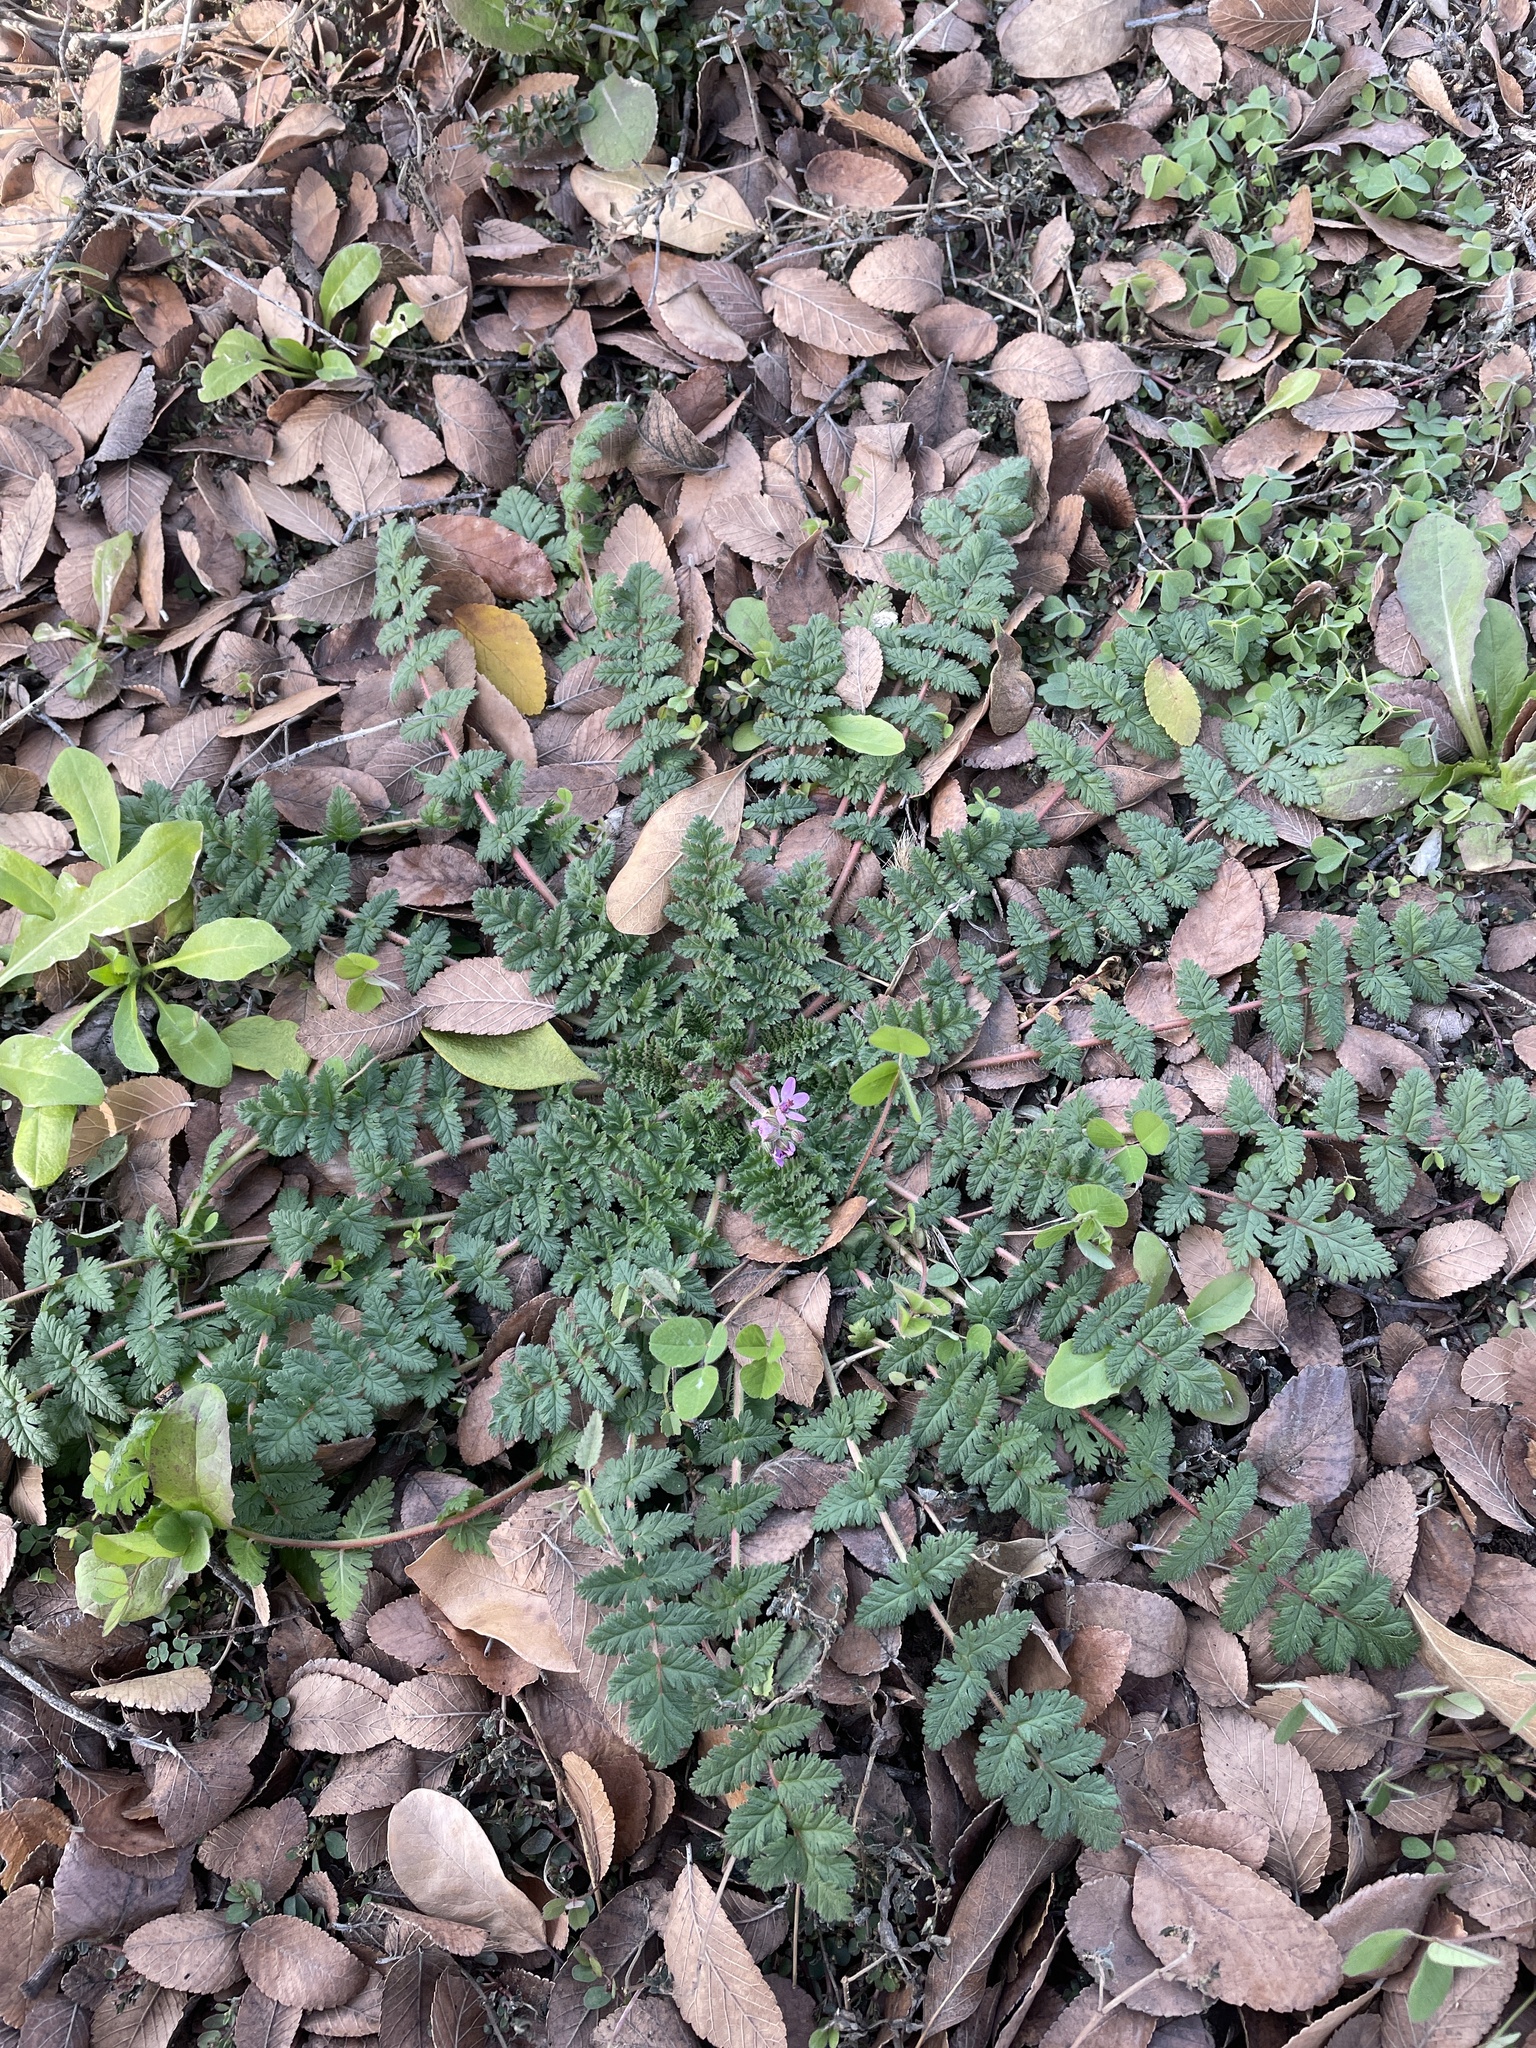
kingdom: Plantae
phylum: Tracheophyta
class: Magnoliopsida
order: Geraniales
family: Geraniaceae
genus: Erodium
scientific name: Erodium cicutarium
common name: Common stork's-bill
